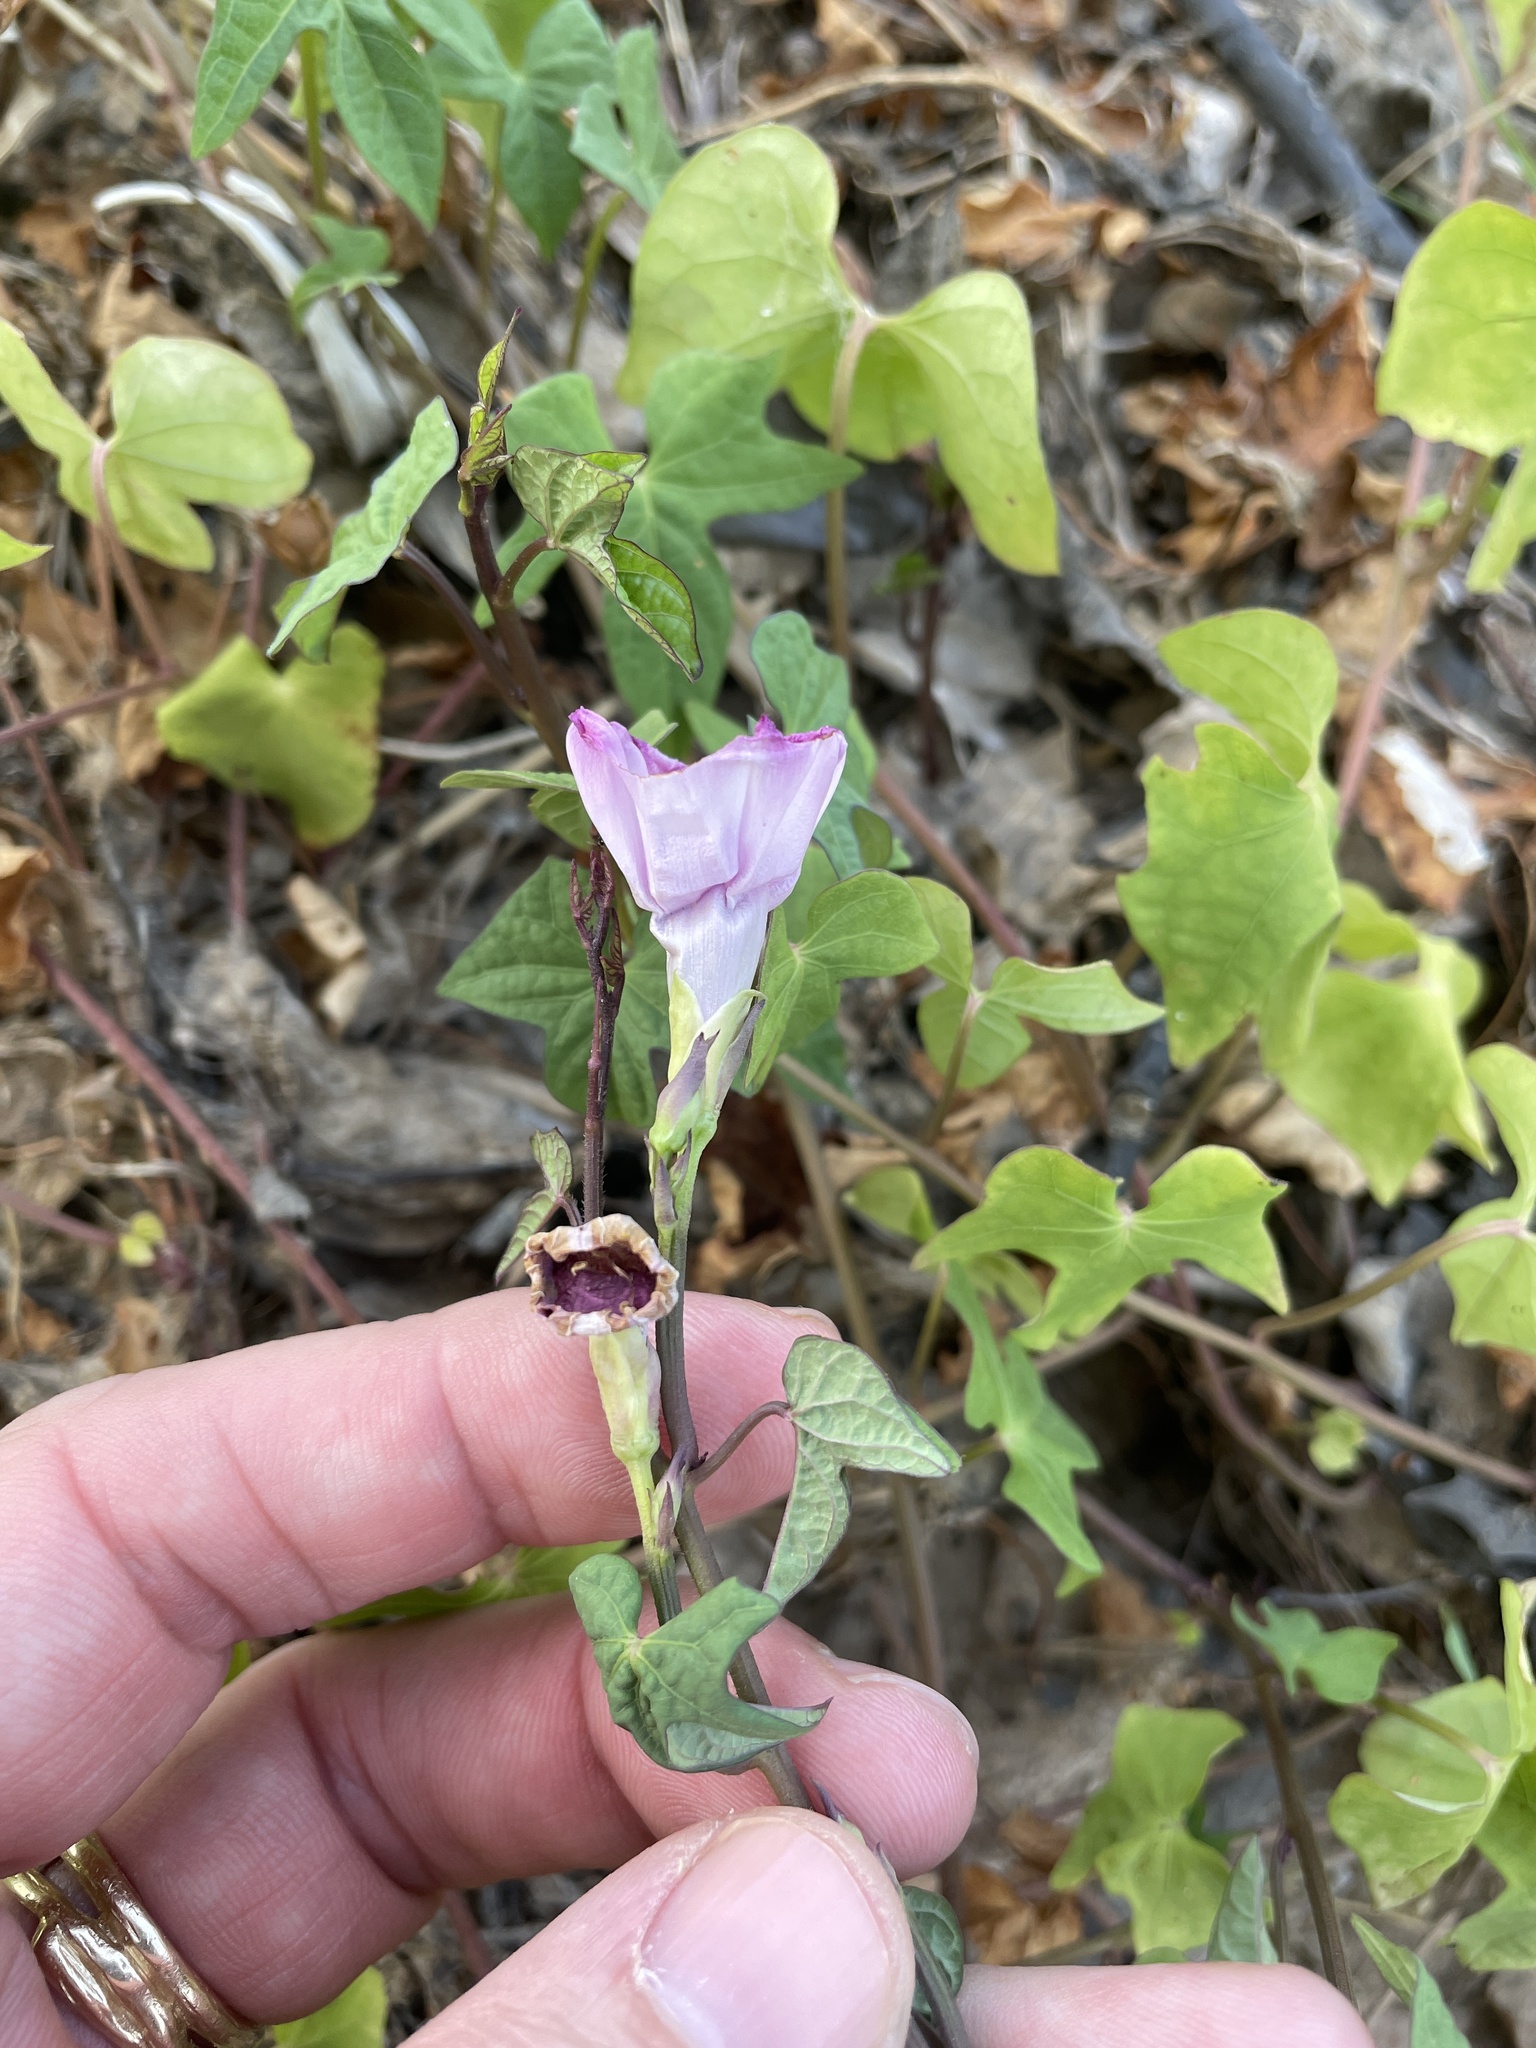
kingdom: Plantae
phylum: Tracheophyta
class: Magnoliopsida
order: Solanales
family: Convolvulaceae
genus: Ipomoea
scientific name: Ipomoea cordatotriloba
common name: Cotton morning glory
